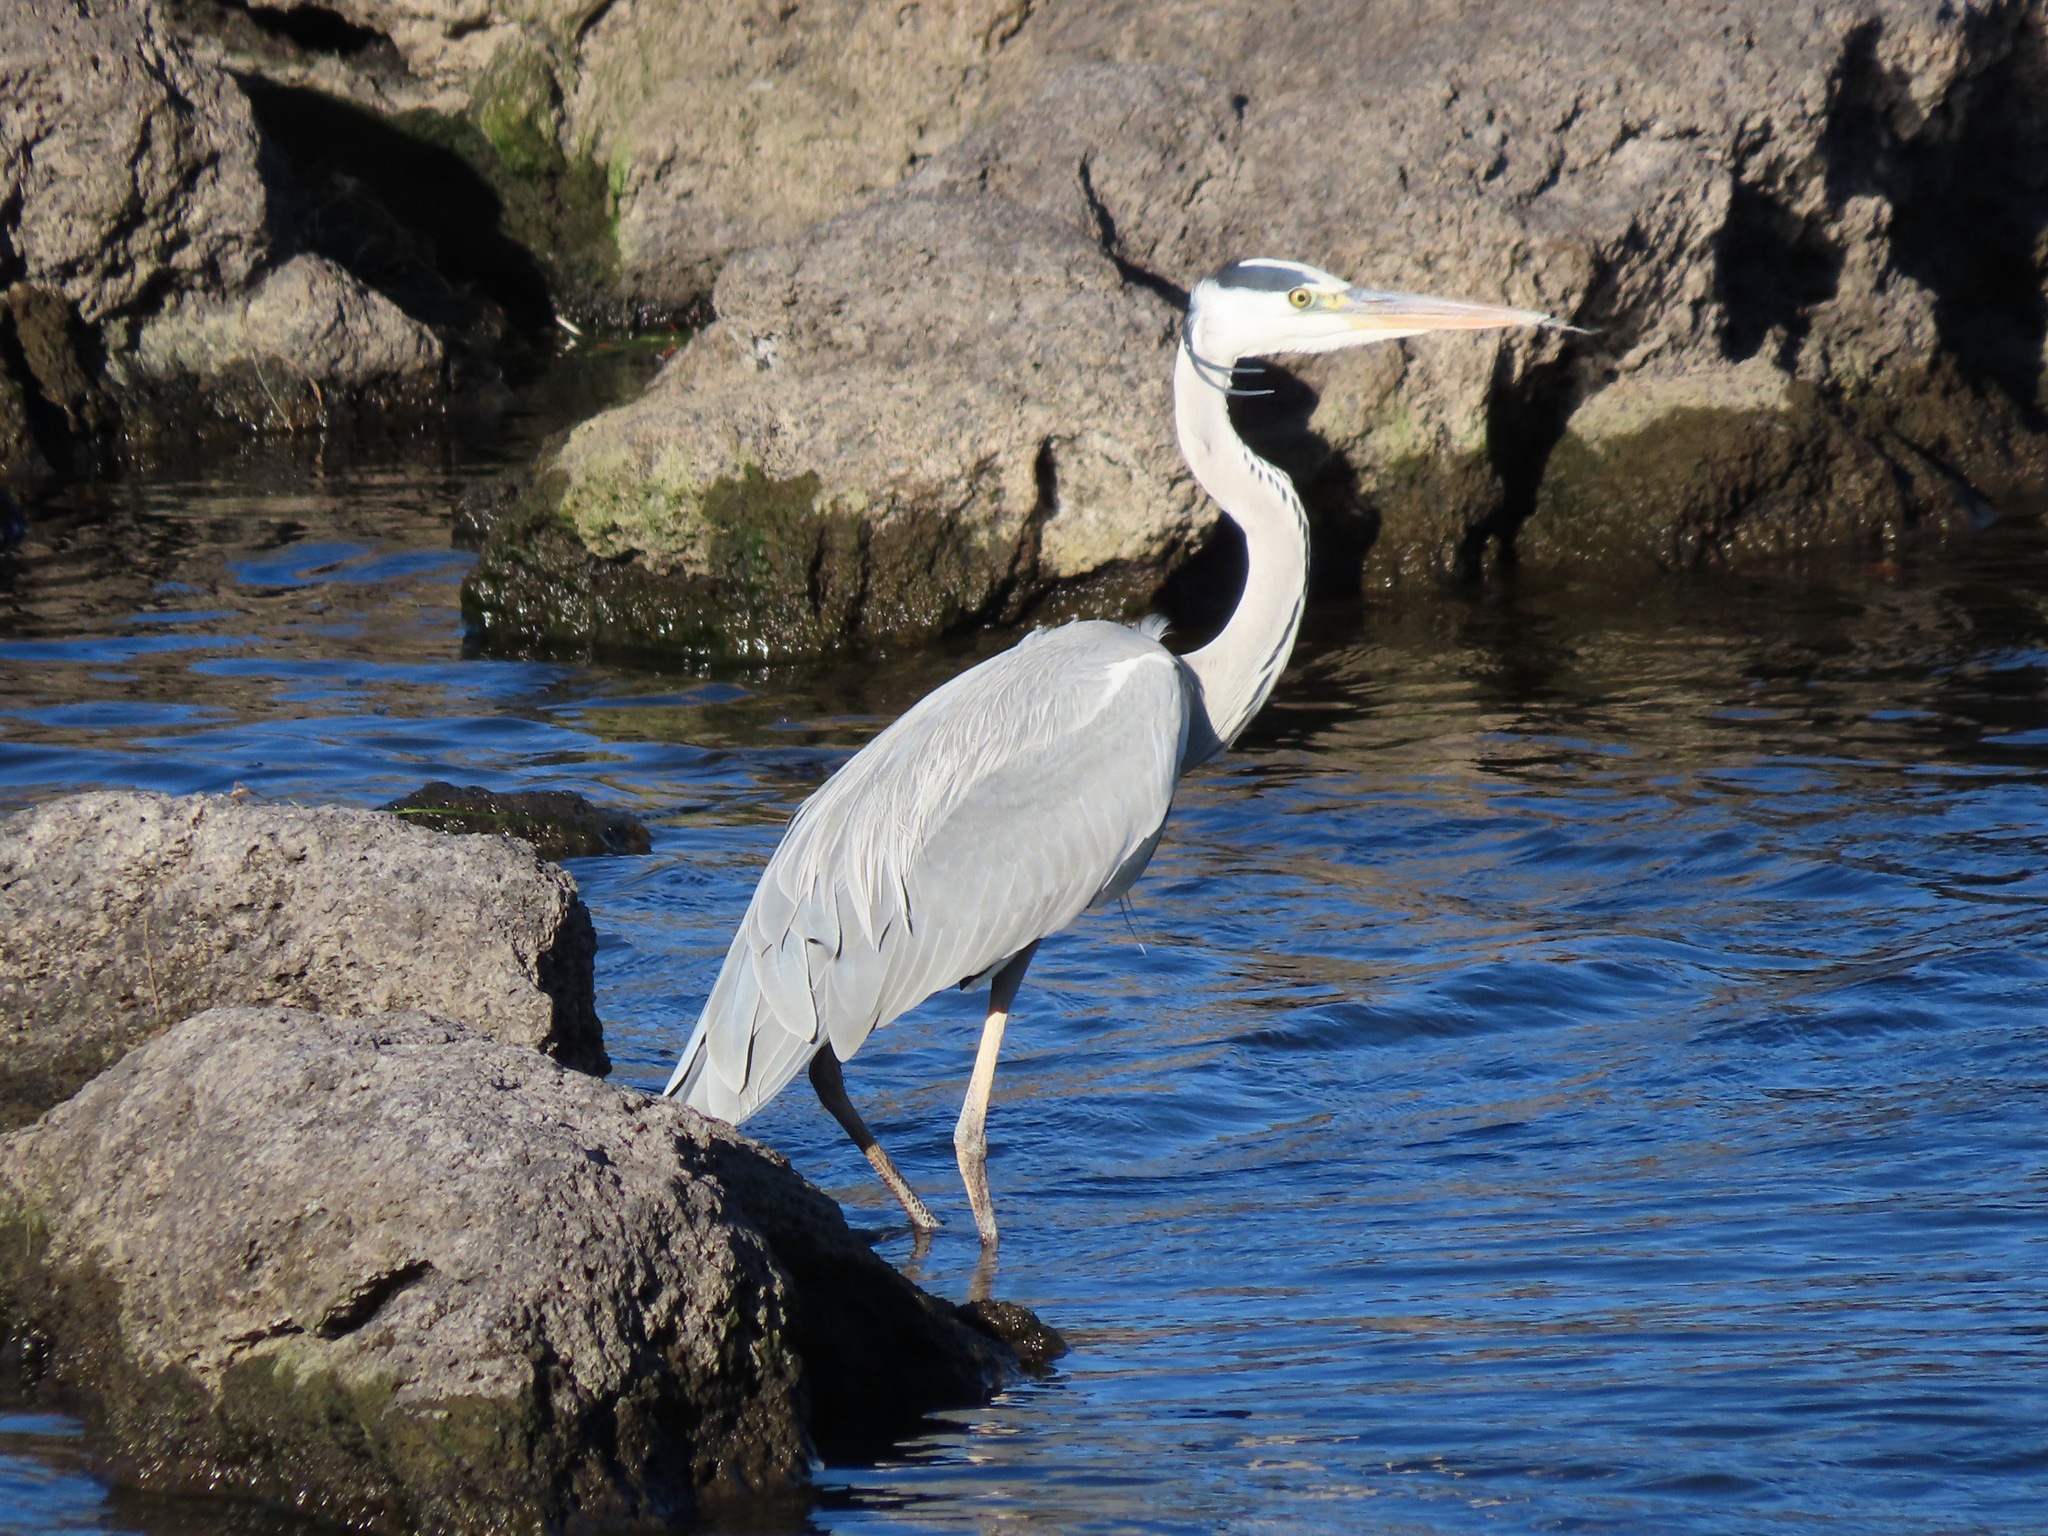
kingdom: Animalia
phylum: Chordata
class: Aves
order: Pelecaniformes
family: Ardeidae
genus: Ardea
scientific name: Ardea cinerea
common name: Grey heron
